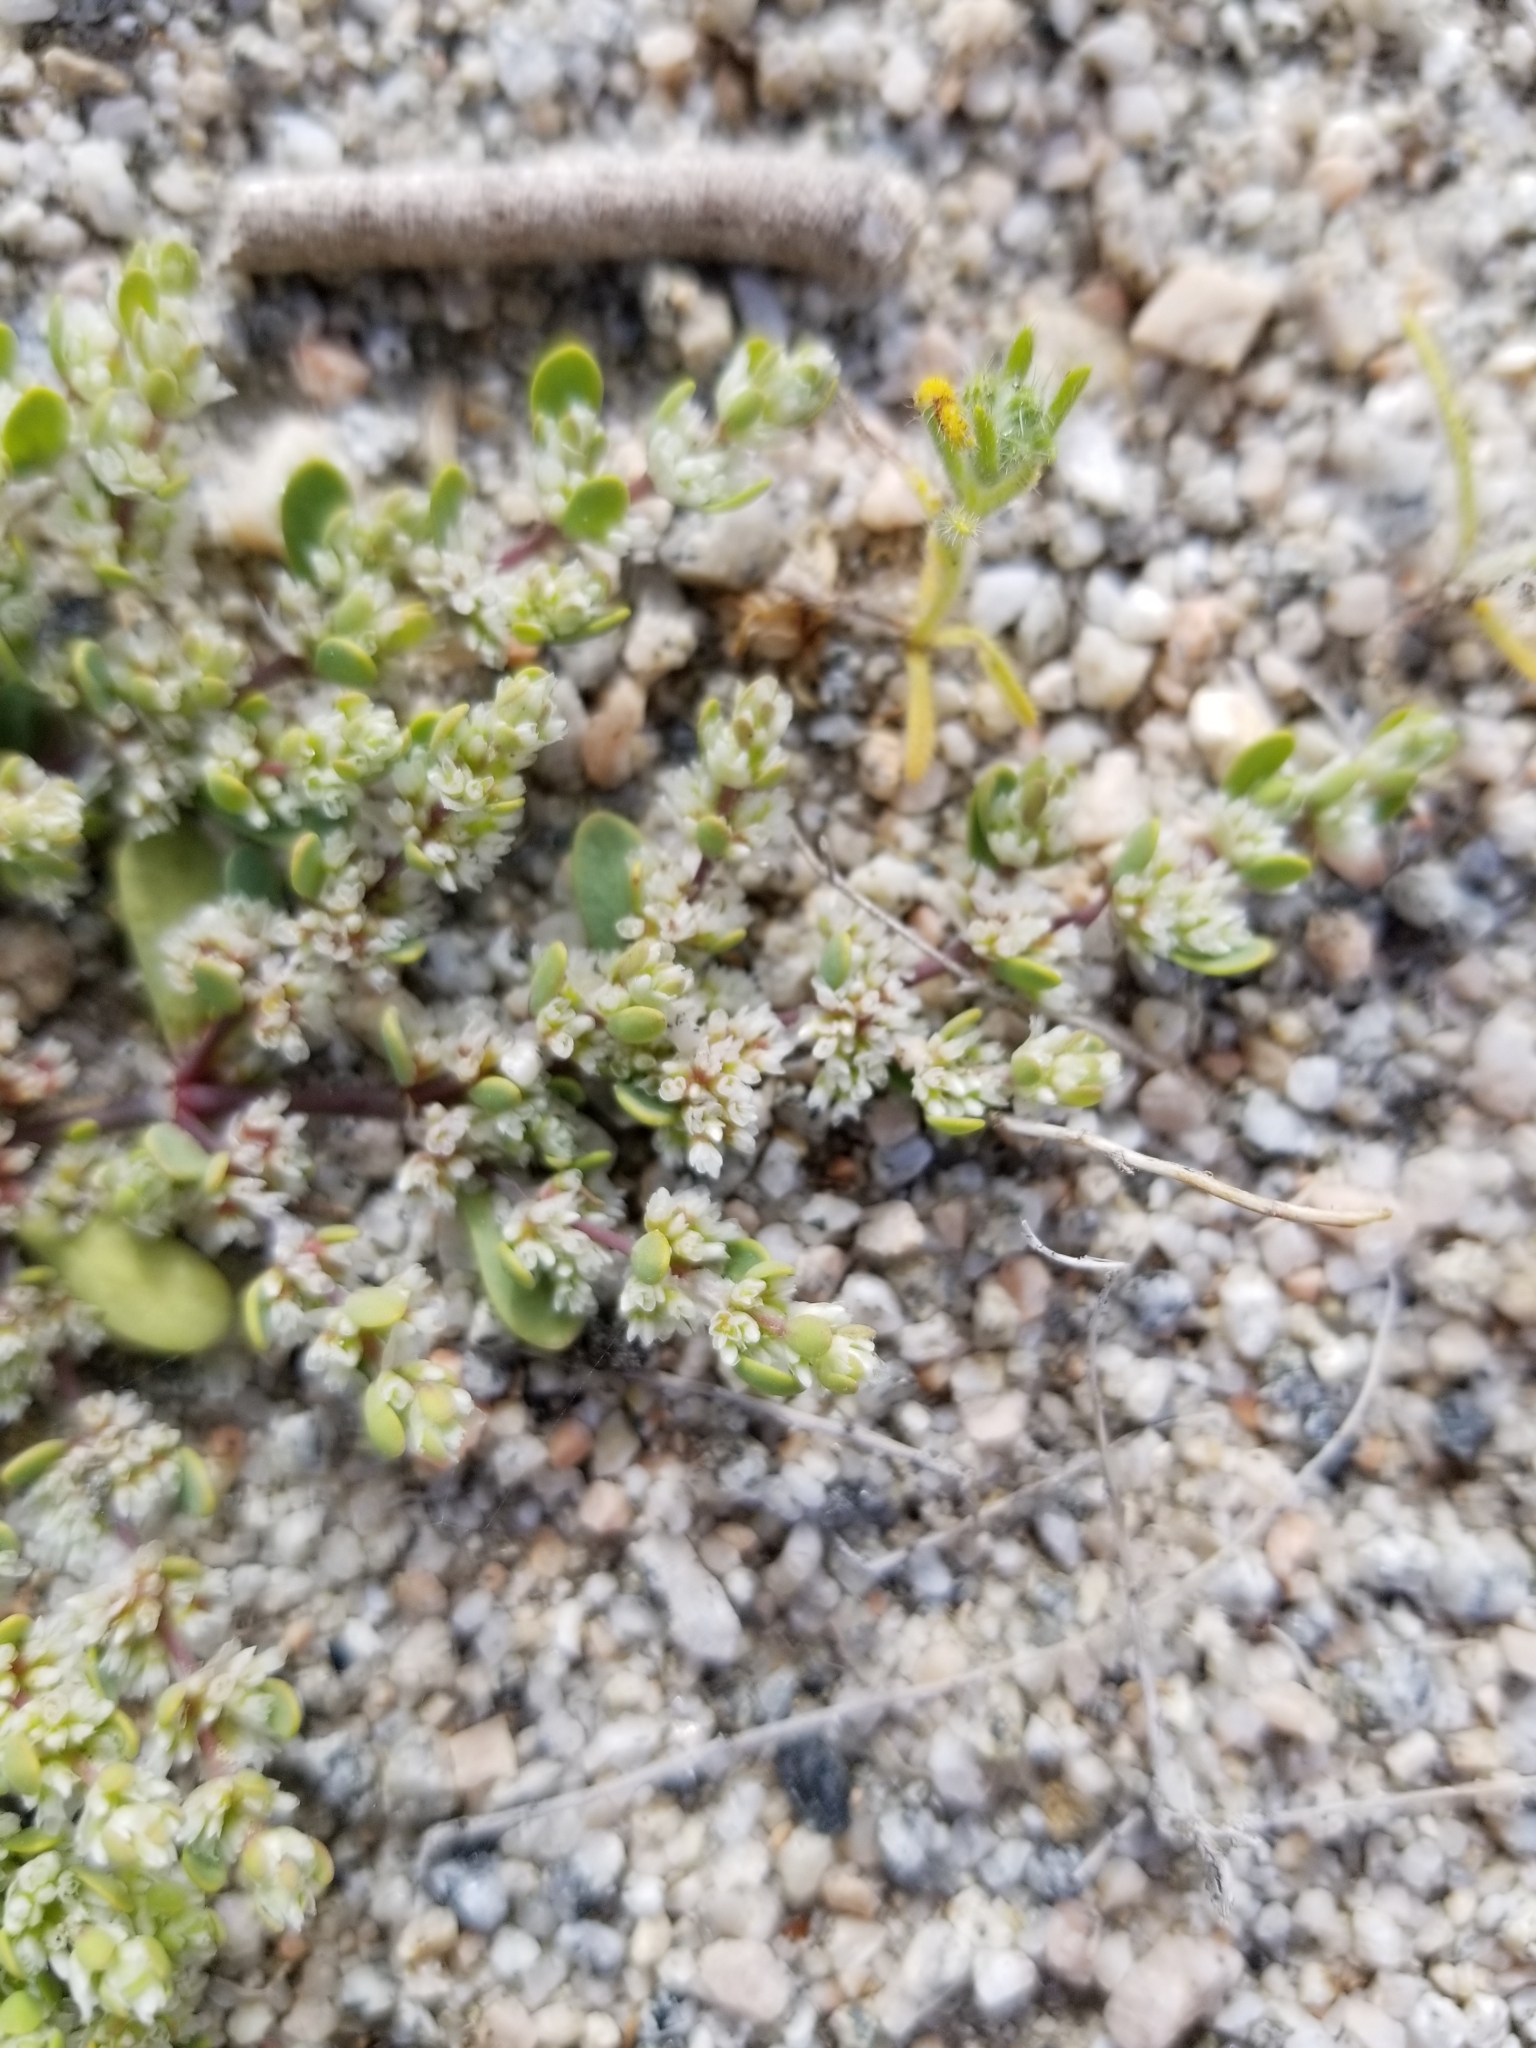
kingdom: Plantae
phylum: Tracheophyta
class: Magnoliopsida
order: Caryophyllales
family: Caryophyllaceae
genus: Achyronychia
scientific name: Achyronychia cooperi
